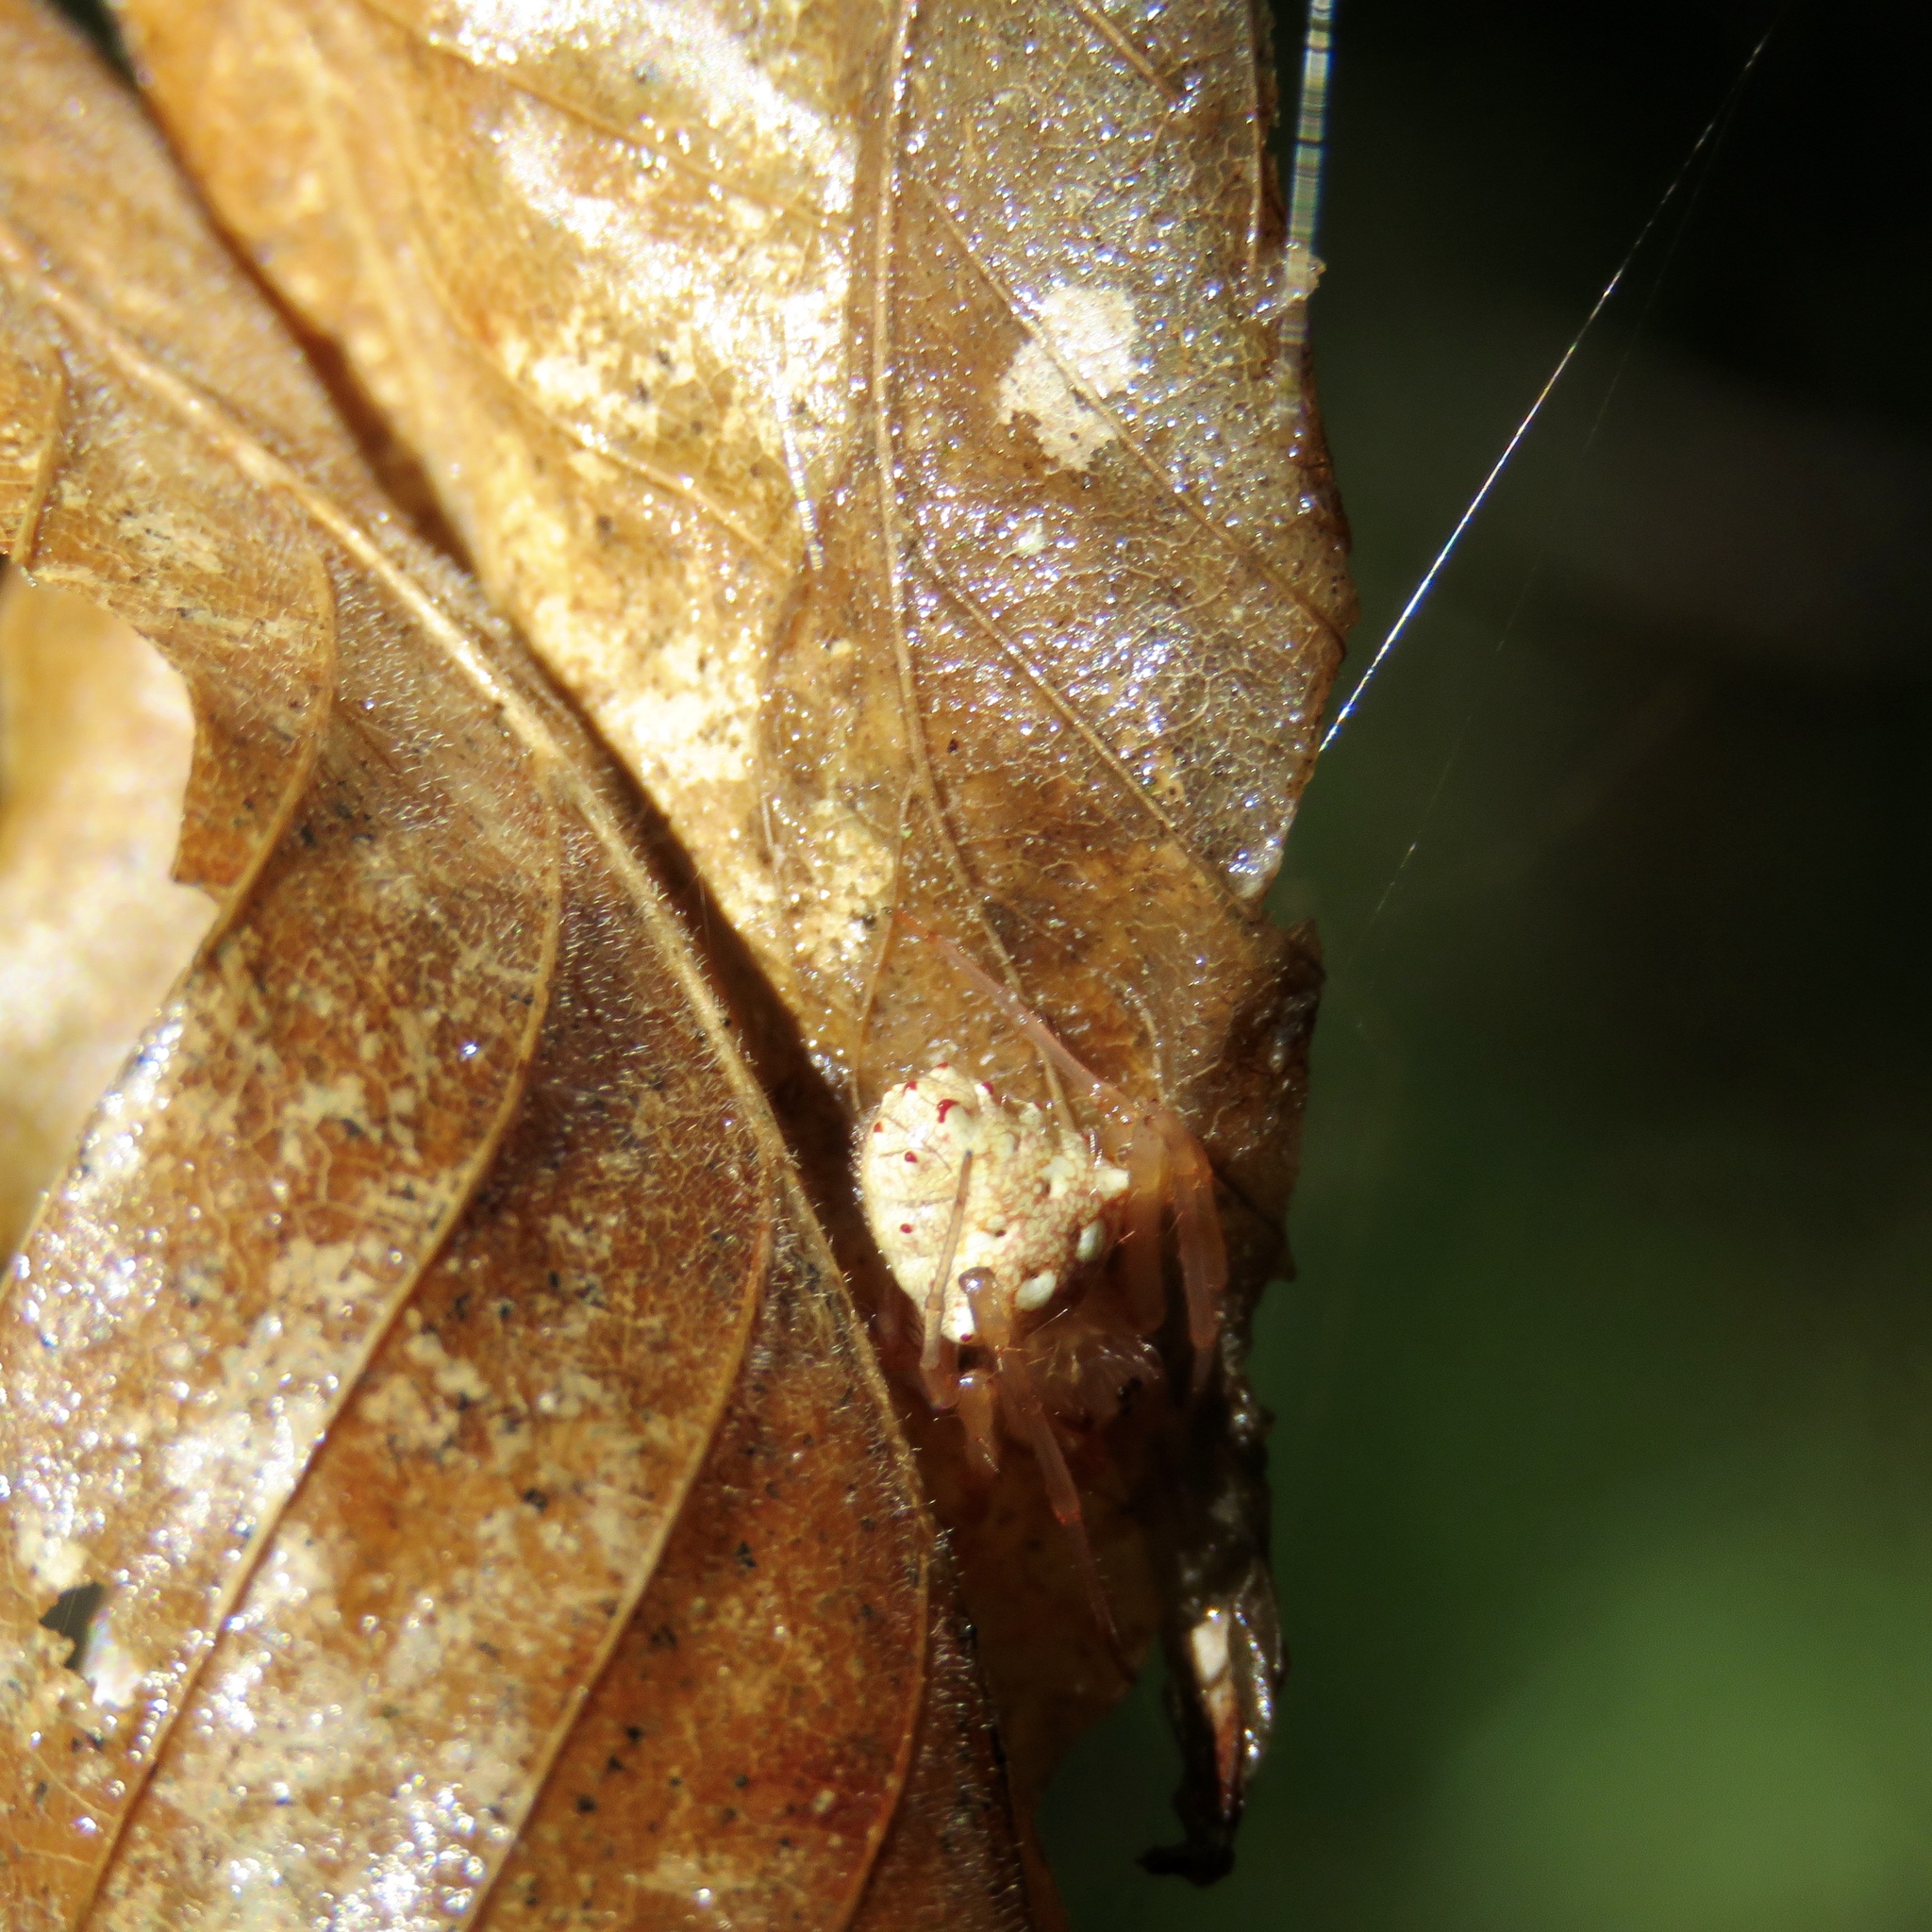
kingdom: Animalia
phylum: Arthropoda
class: Arachnida
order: Araneae
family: Araneidae
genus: Verrucosa
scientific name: Verrucosa arenata
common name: Orb weavers
